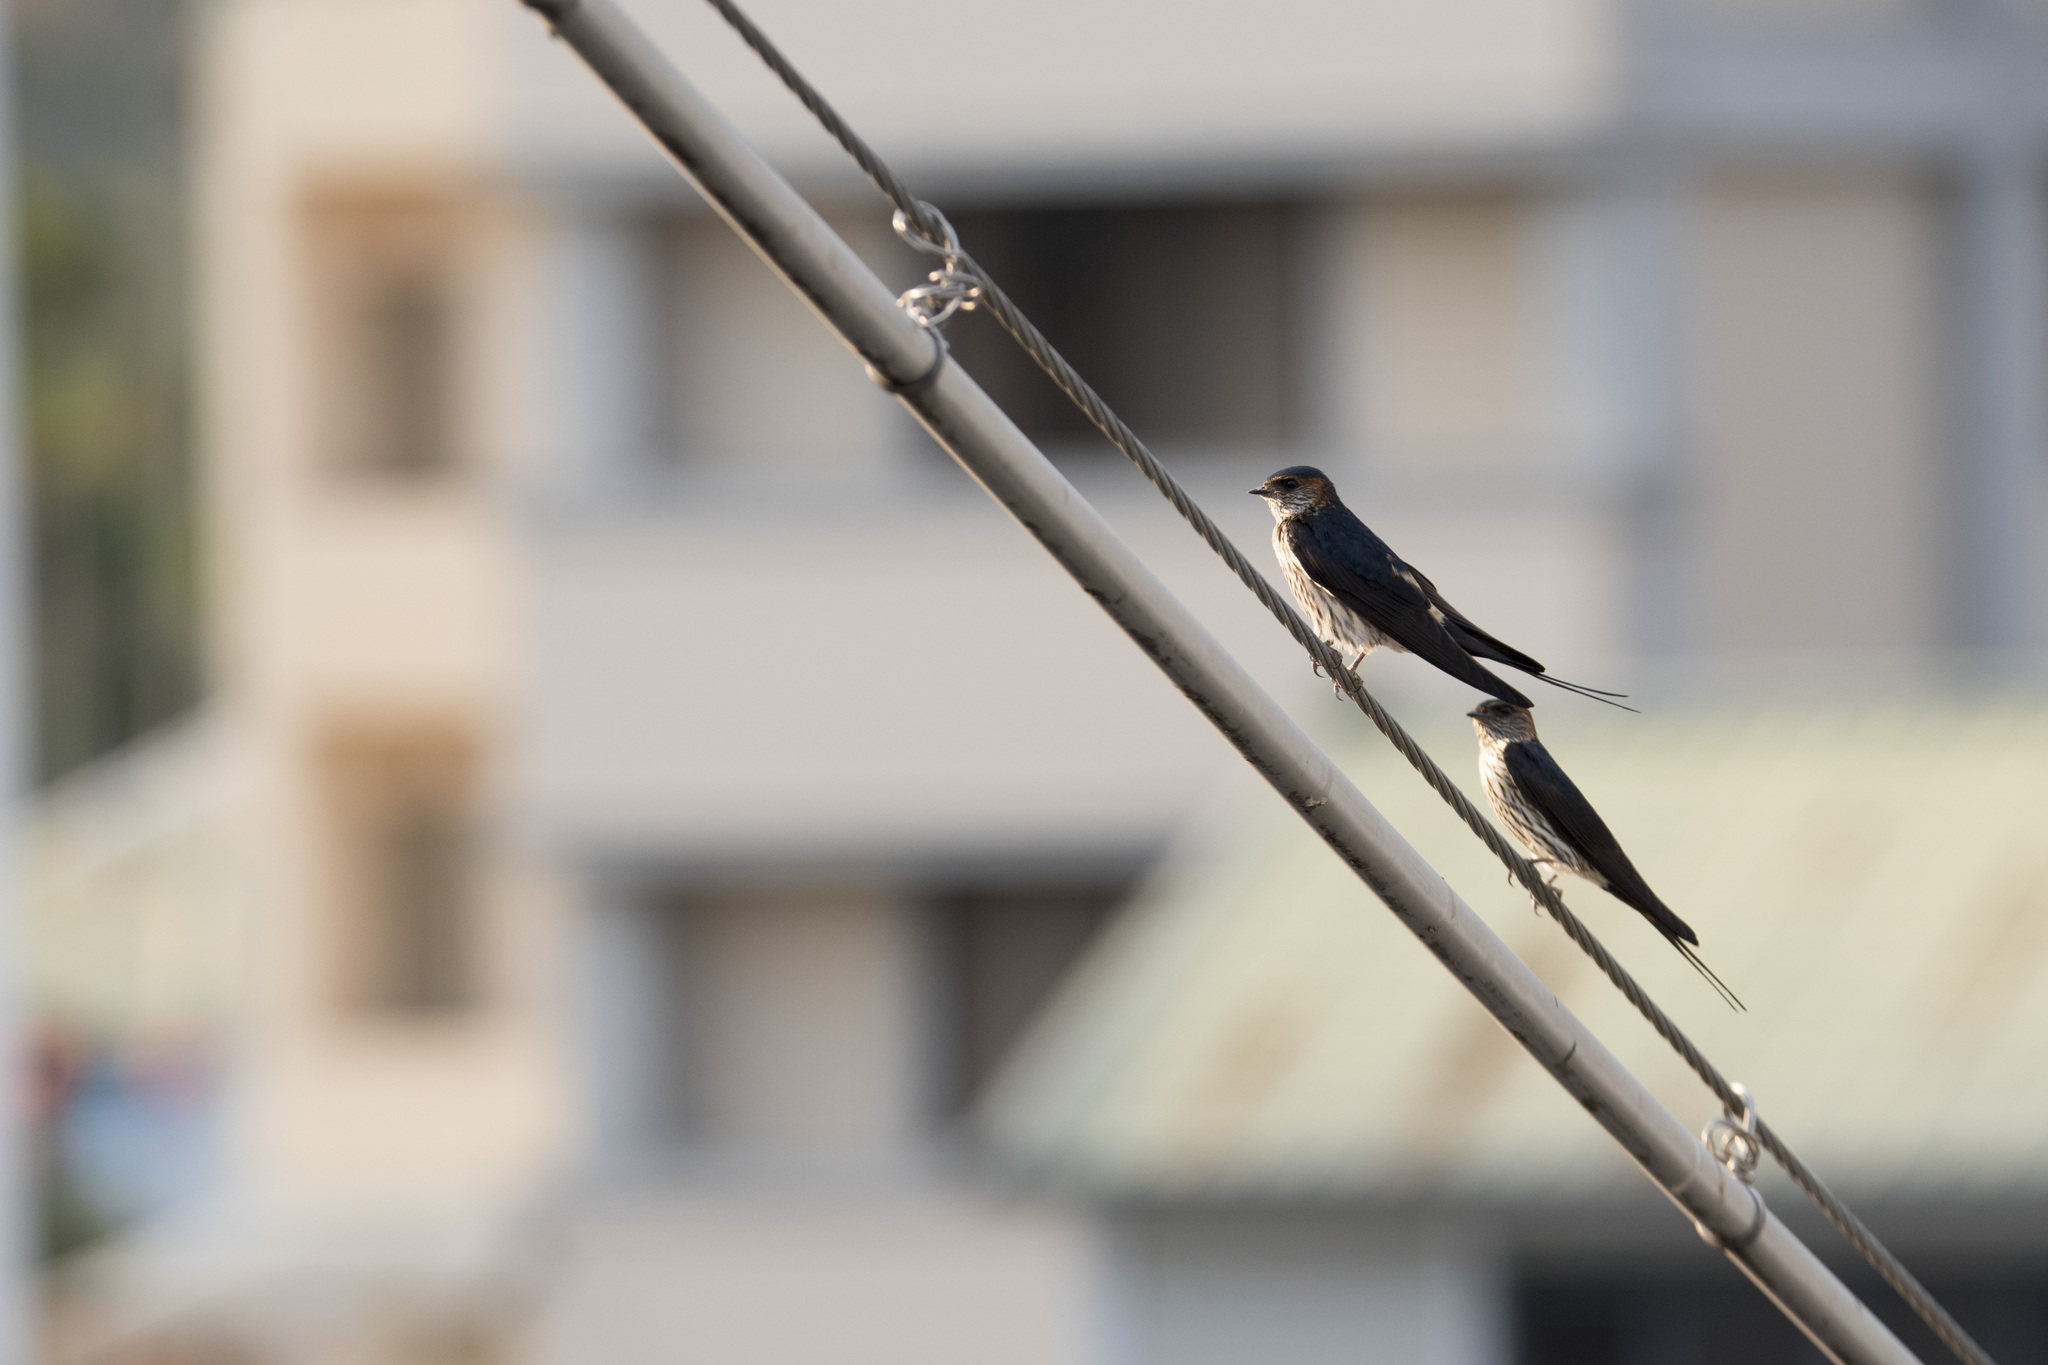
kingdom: Animalia
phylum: Chordata
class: Aves
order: Passeriformes
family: Hirundinidae
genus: Cecropis
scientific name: Cecropis striolata
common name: Striated swallow
